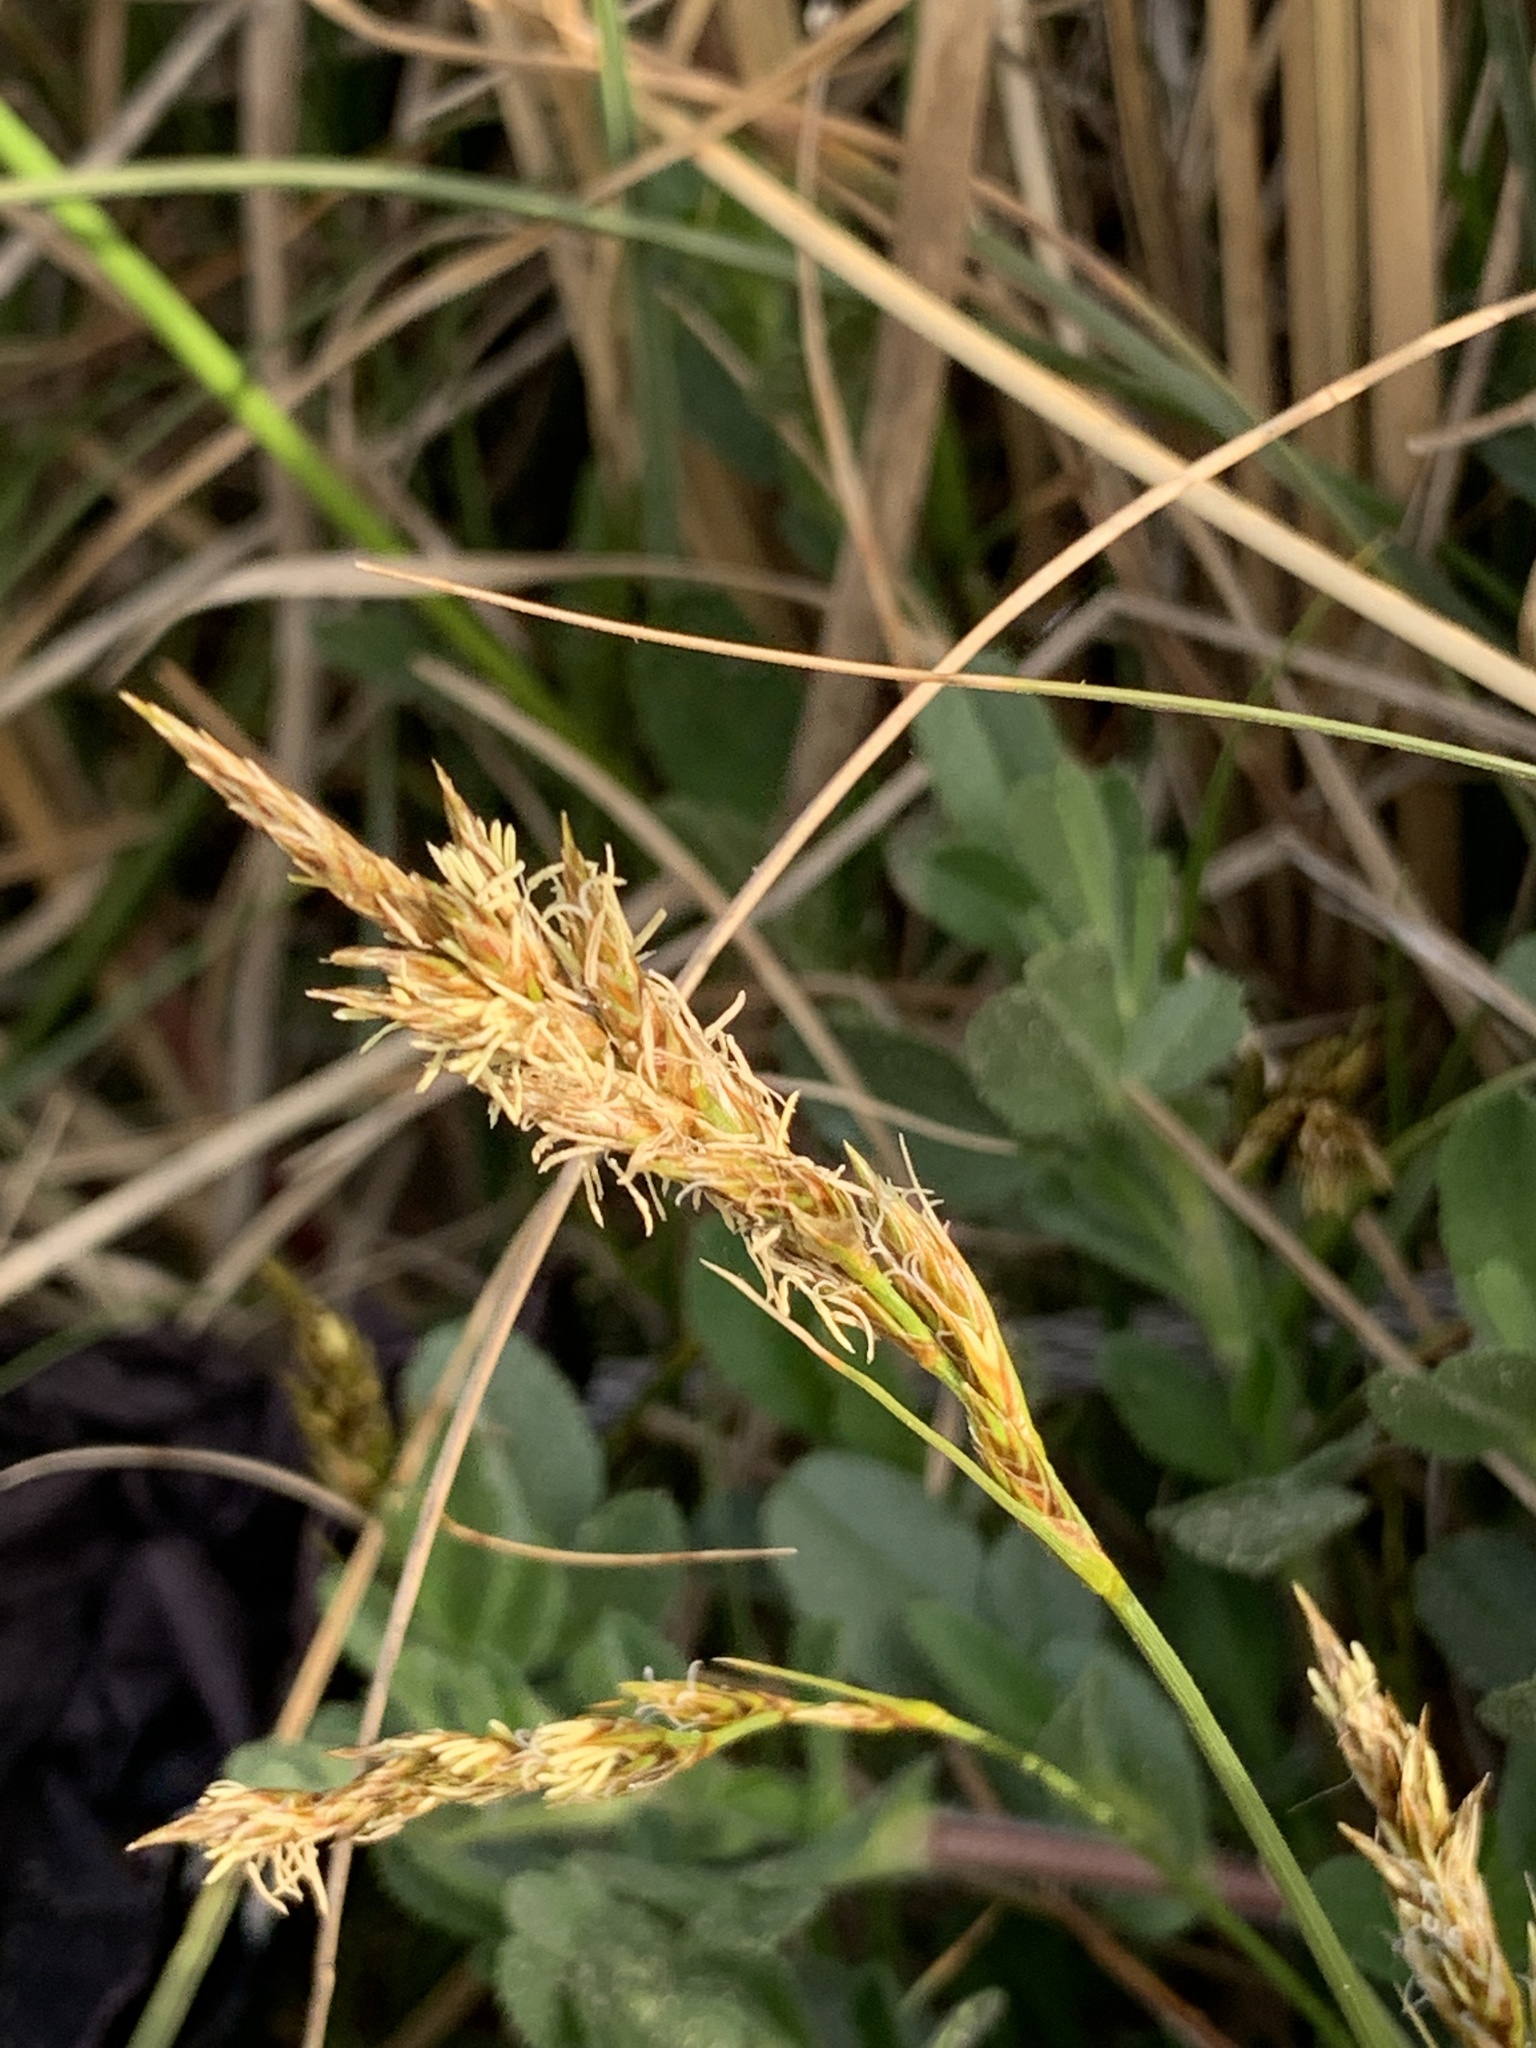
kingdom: Plantae
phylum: Tracheophyta
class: Liliopsida
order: Poales
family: Cyperaceae
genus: Carex
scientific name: Carex arenaria
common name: Sand sedge
